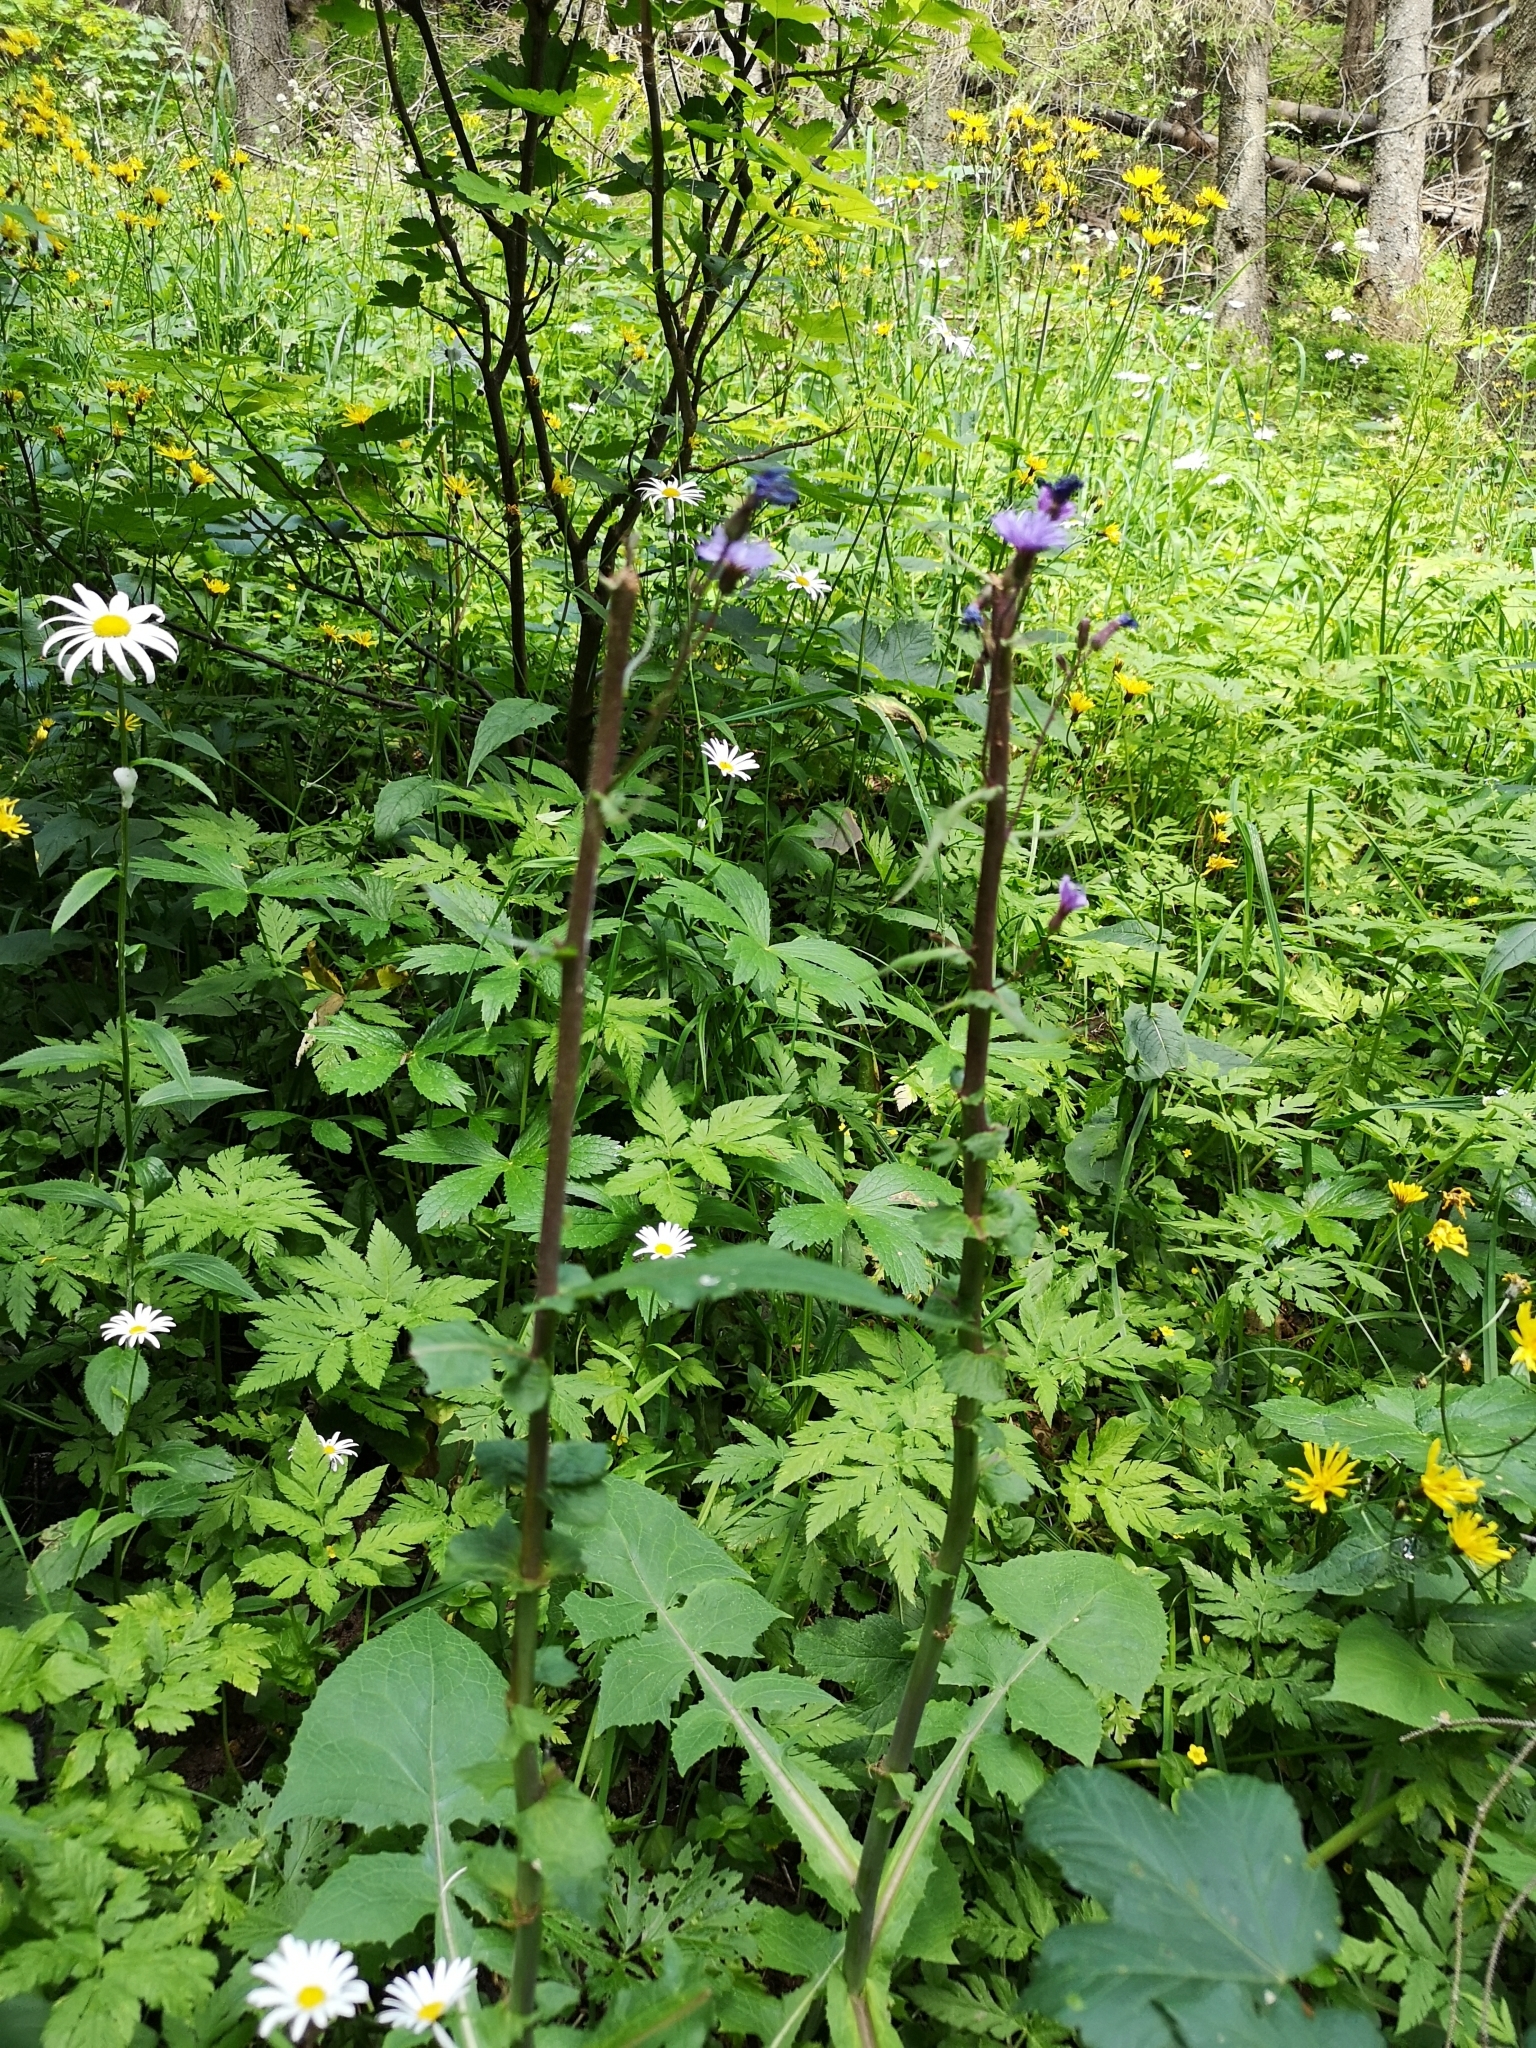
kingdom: Plantae
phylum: Tracheophyta
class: Magnoliopsida
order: Asterales
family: Asteraceae
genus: Cicerbita
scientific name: Cicerbita alpina
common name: Alpine blue-sow-thistle
